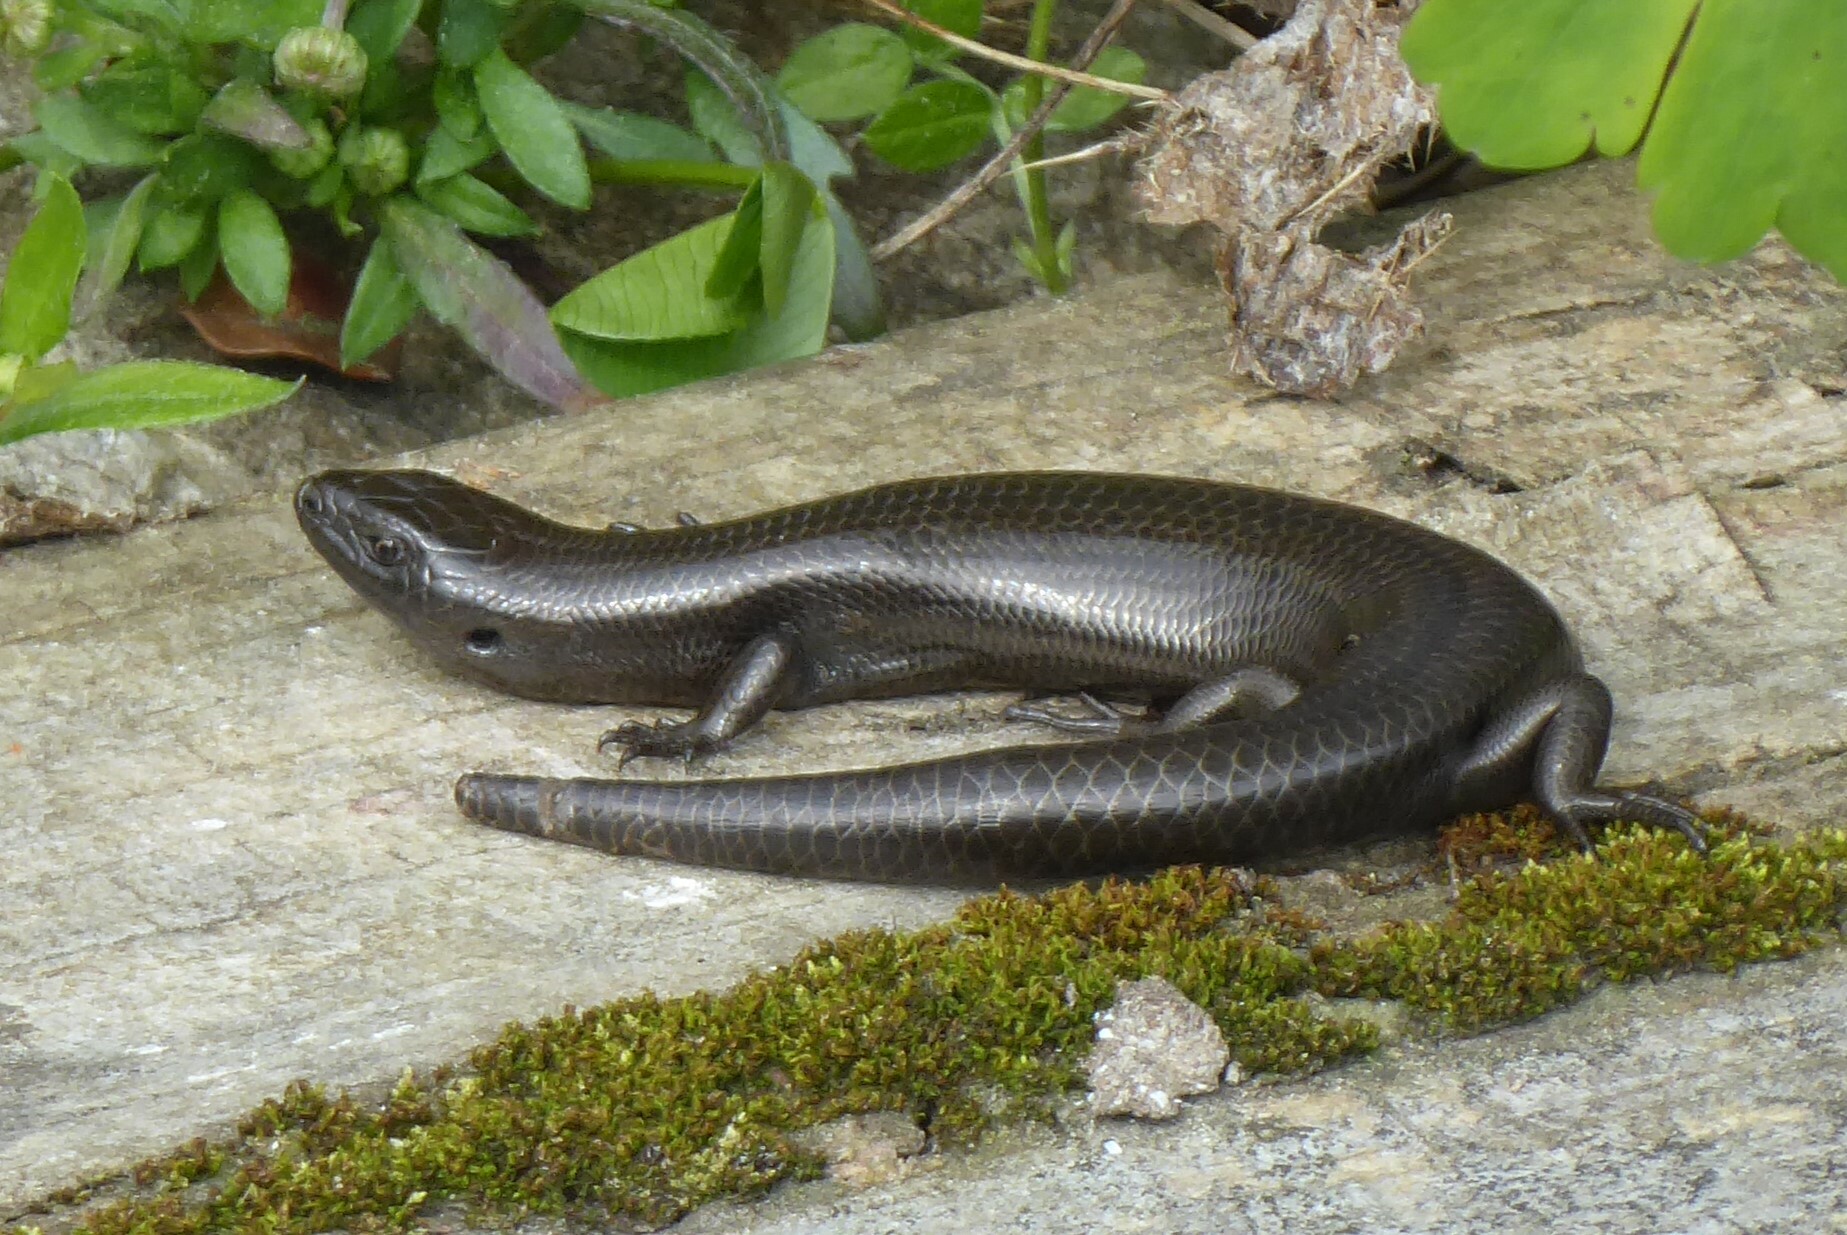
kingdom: Animalia
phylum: Chordata
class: Squamata
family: Scincidae
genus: Oligosoma
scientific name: Oligosoma polychroma
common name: Common new zealand skink
